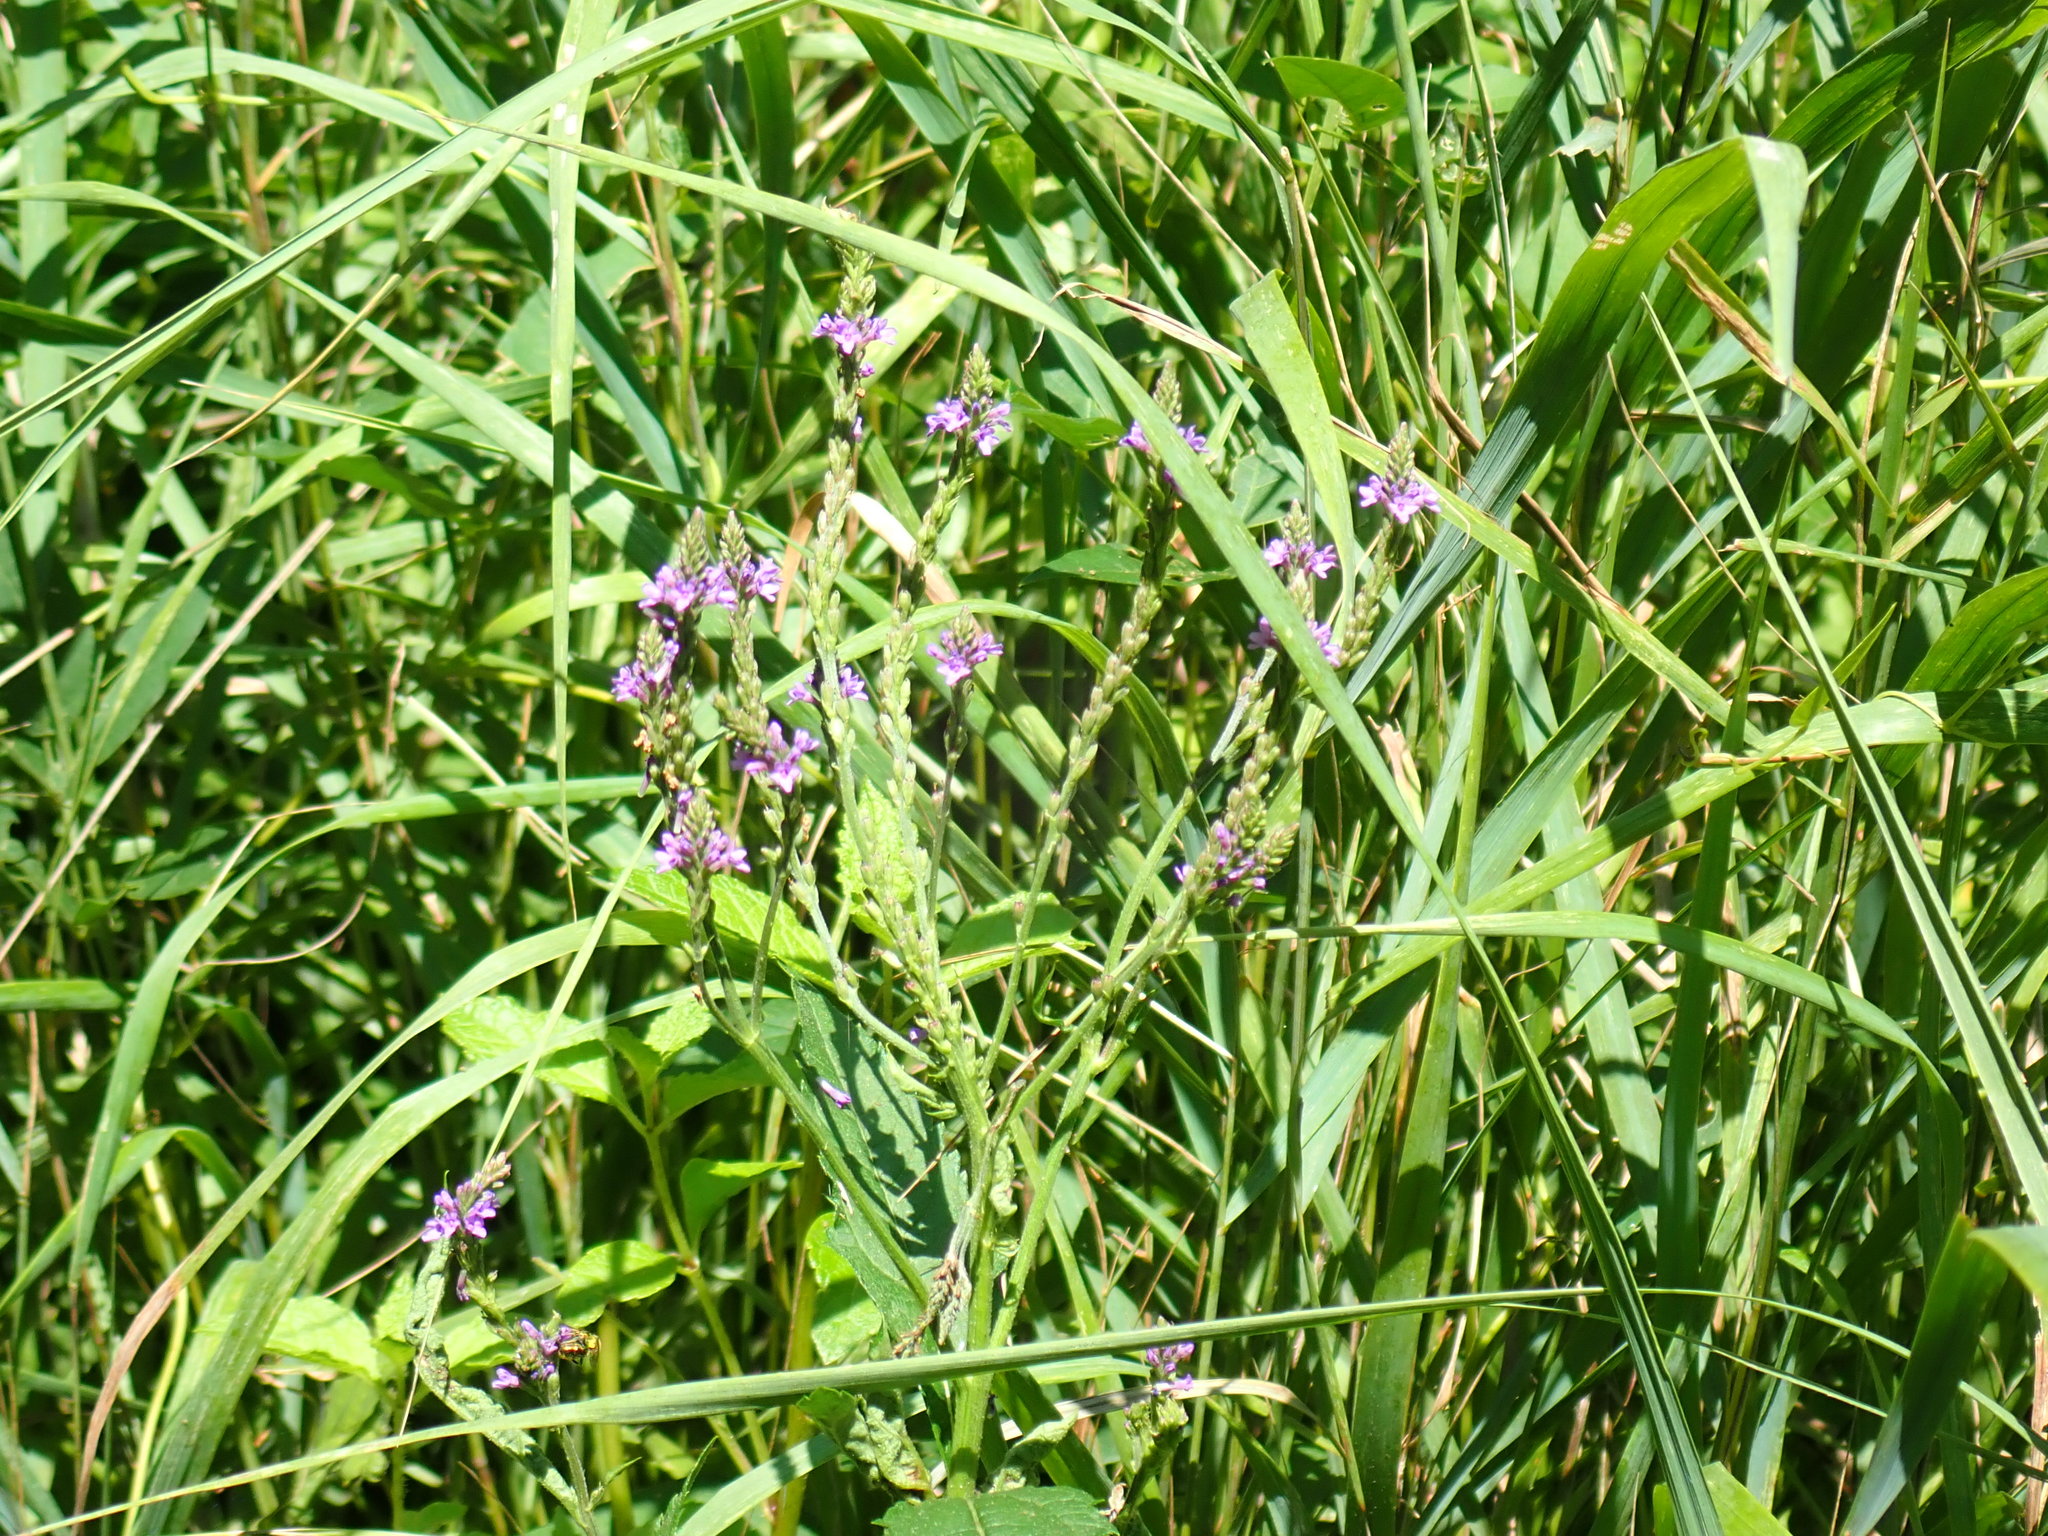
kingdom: Plantae
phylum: Tracheophyta
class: Magnoliopsida
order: Lamiales
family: Verbenaceae
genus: Verbena
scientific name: Verbena hastata
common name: American blue vervain
